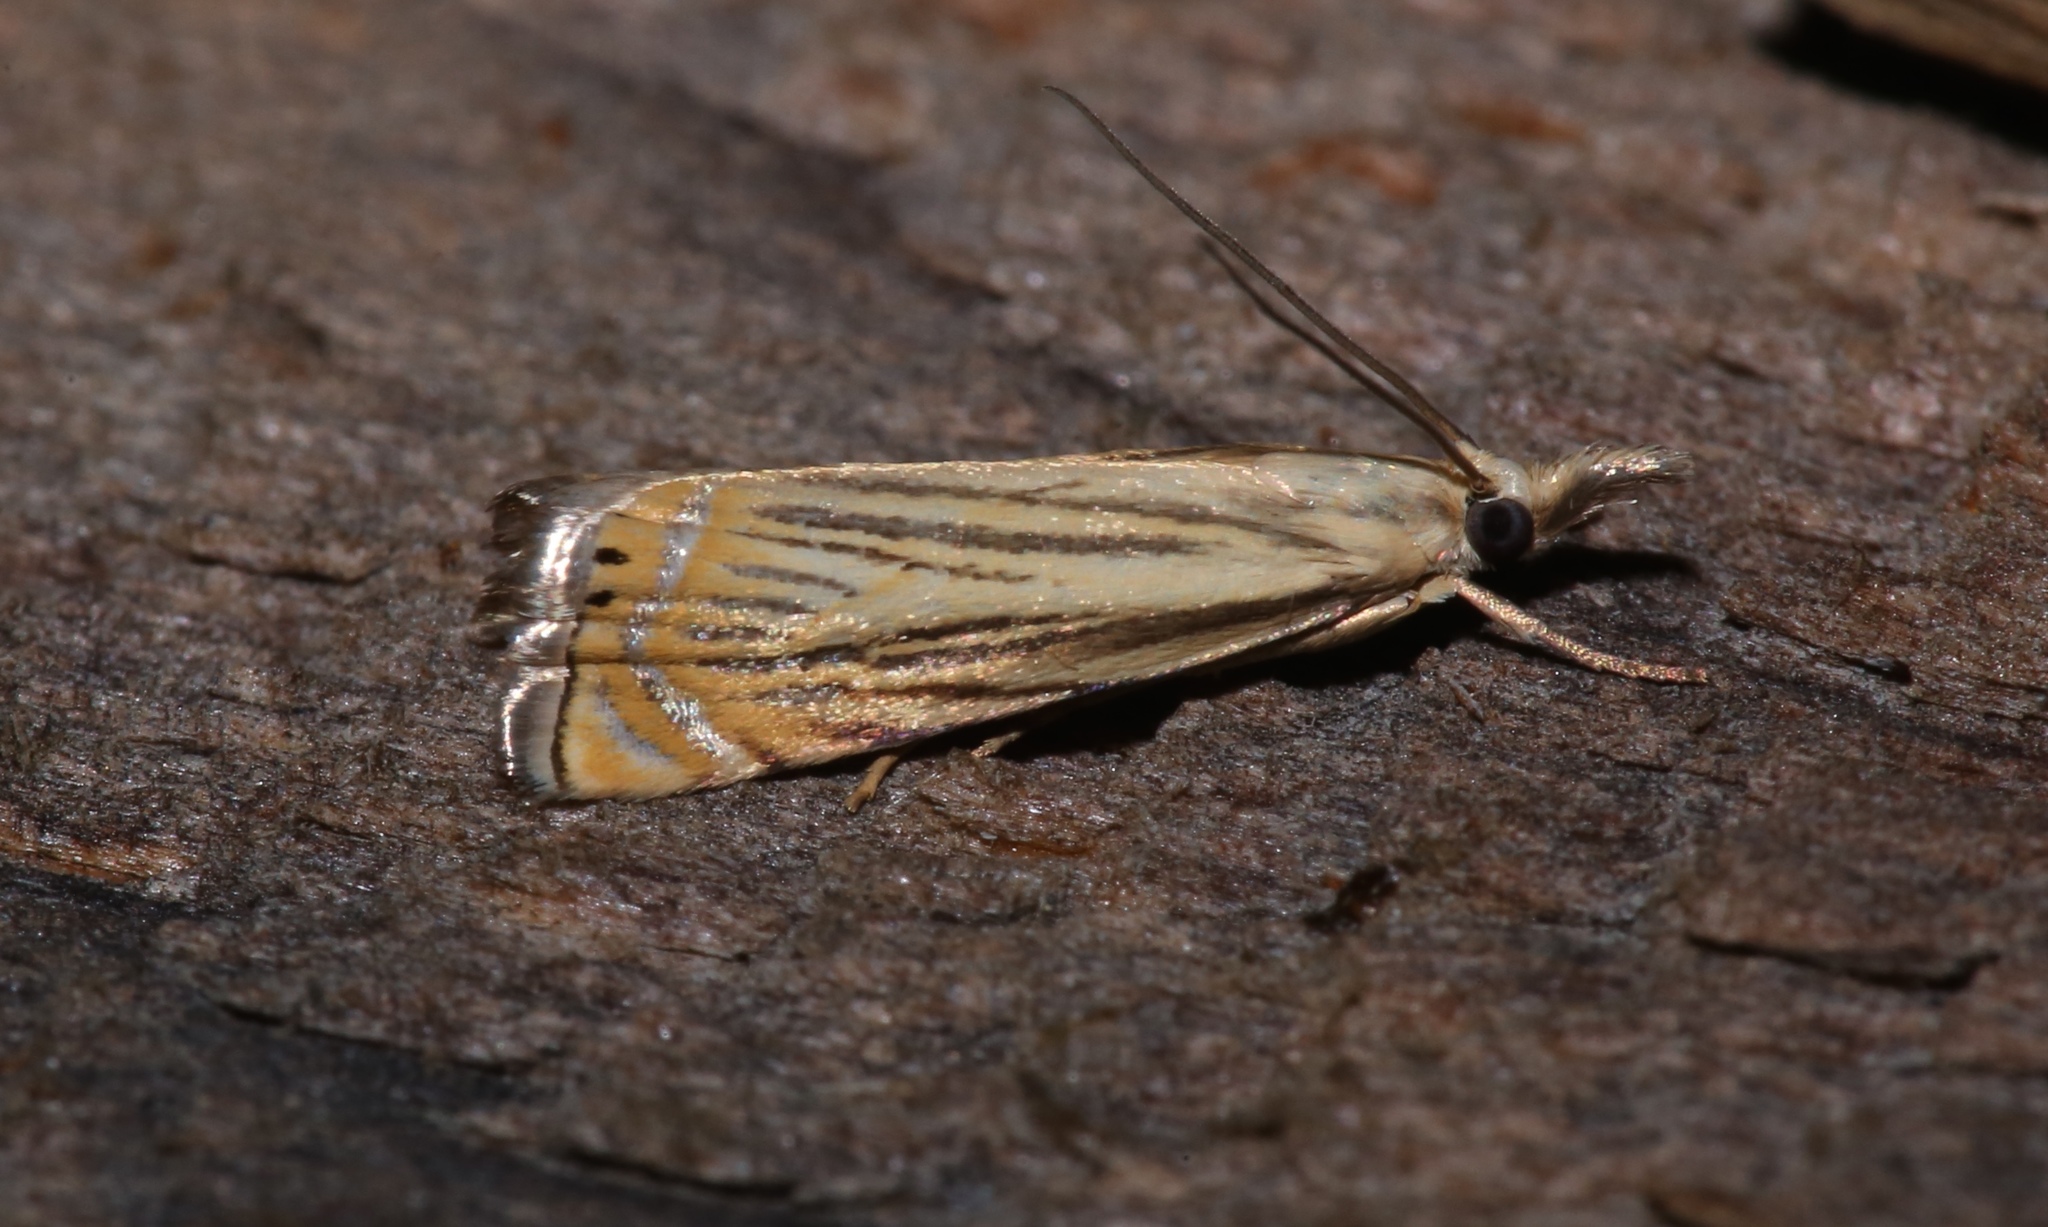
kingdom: Animalia
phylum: Arthropoda
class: Insecta
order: Lepidoptera
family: Crambidae
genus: Chrysoteuchia
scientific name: Chrysoteuchia topiarius
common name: Topiary grass-veneer
